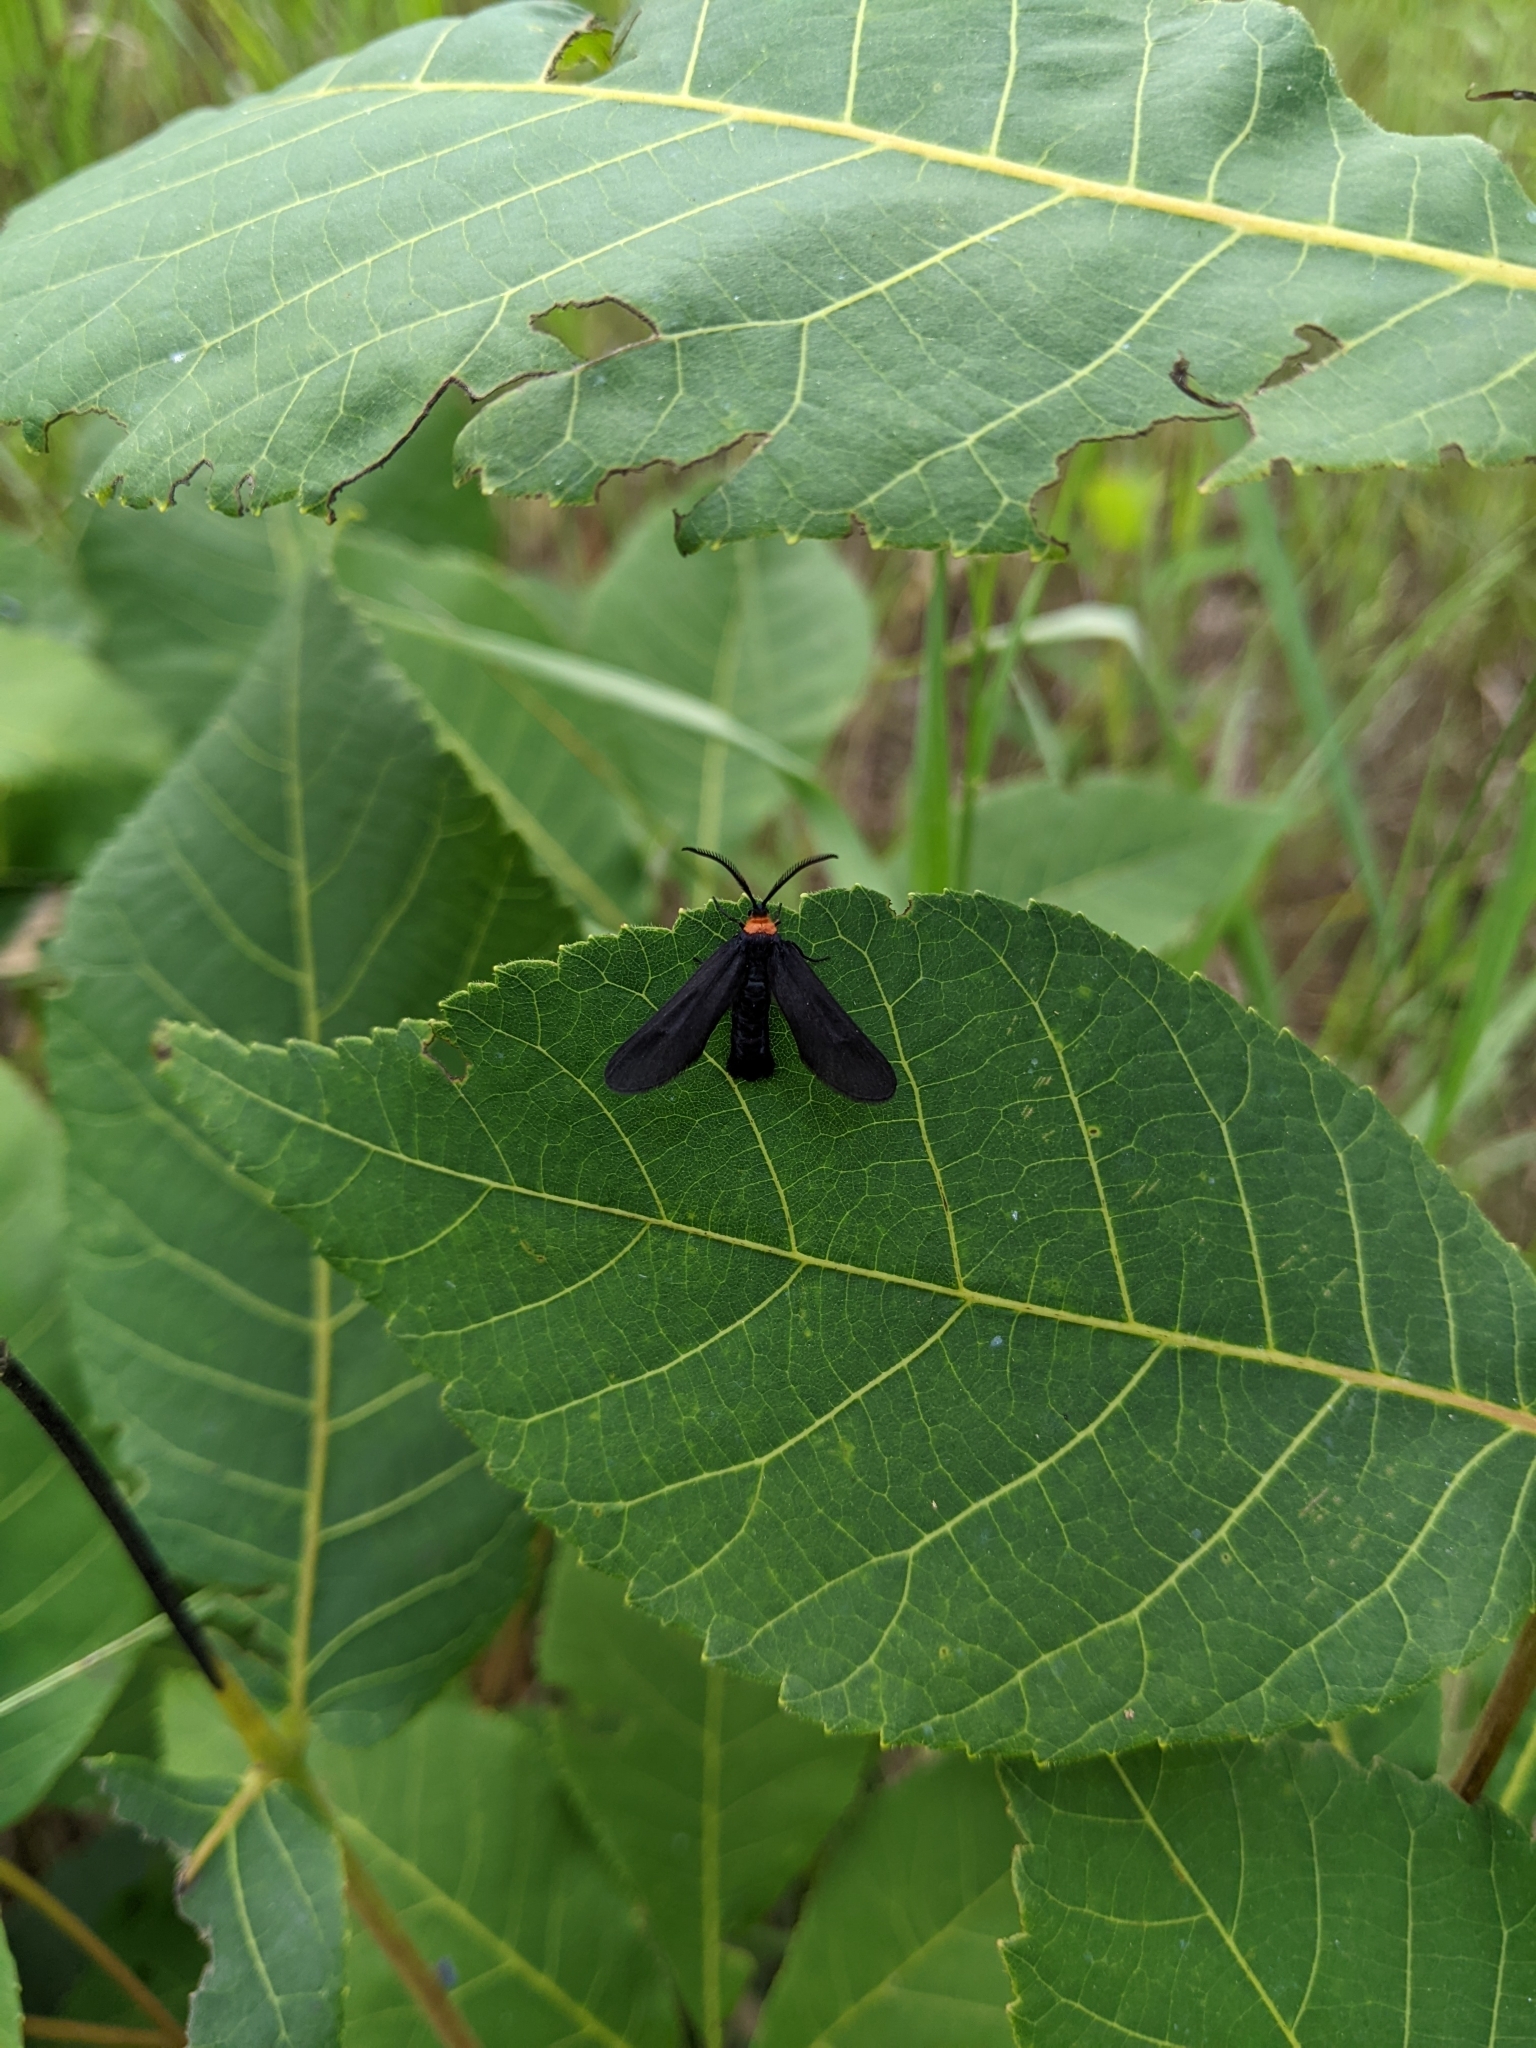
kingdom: Animalia
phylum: Arthropoda
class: Insecta
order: Lepidoptera
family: Zygaenidae
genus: Harrisina
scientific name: Harrisina americana
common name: Grapeleaf skeletonizer moth
